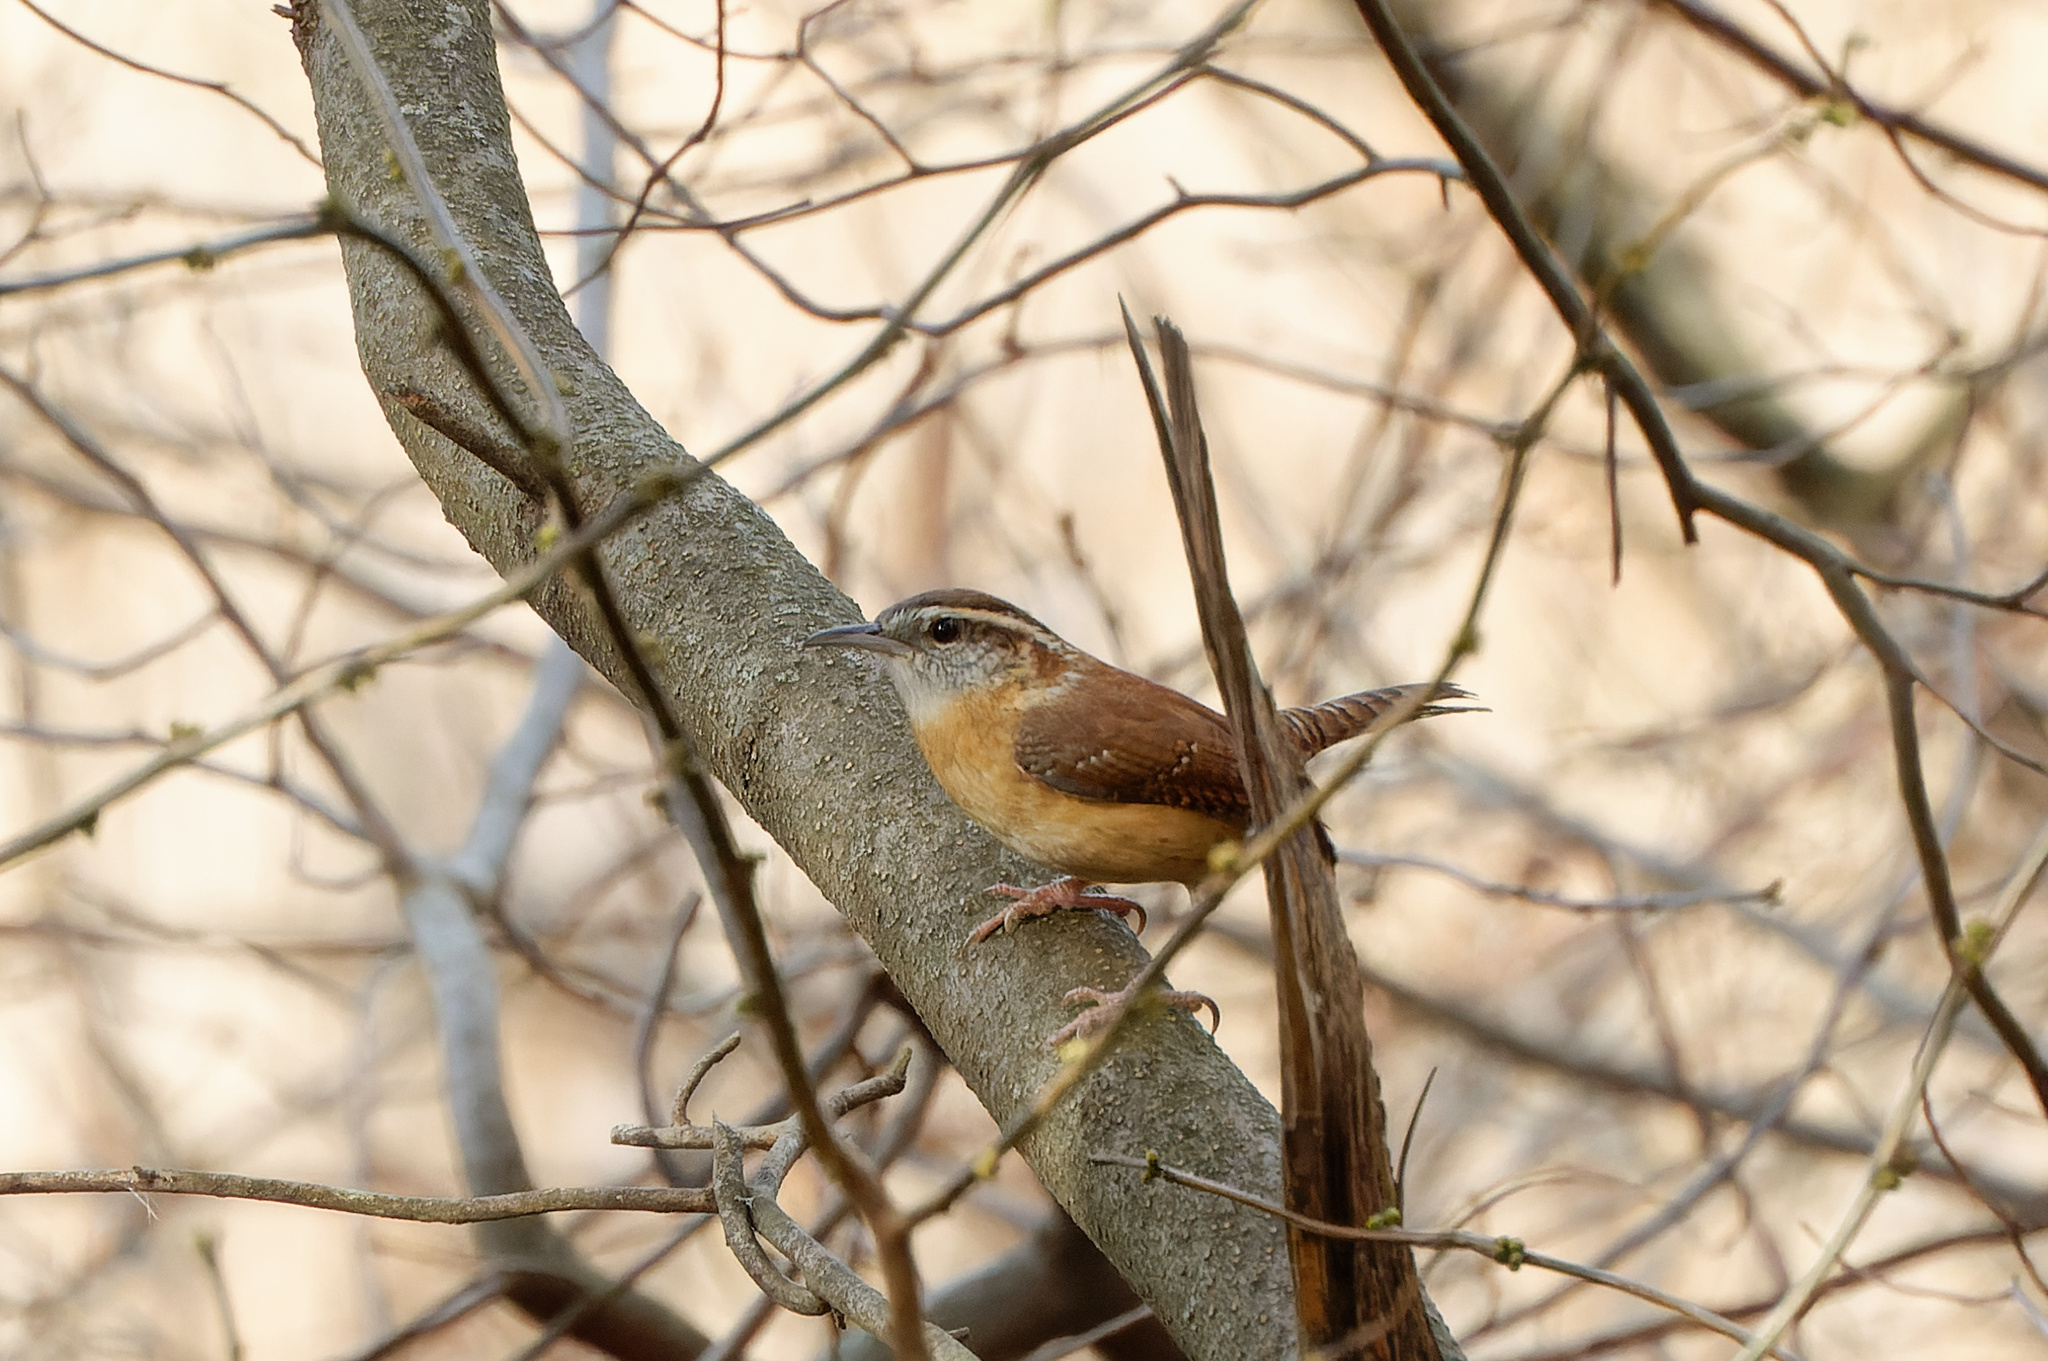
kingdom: Animalia
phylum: Chordata
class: Aves
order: Passeriformes
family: Troglodytidae
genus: Thryothorus
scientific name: Thryothorus ludovicianus
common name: Carolina wren
